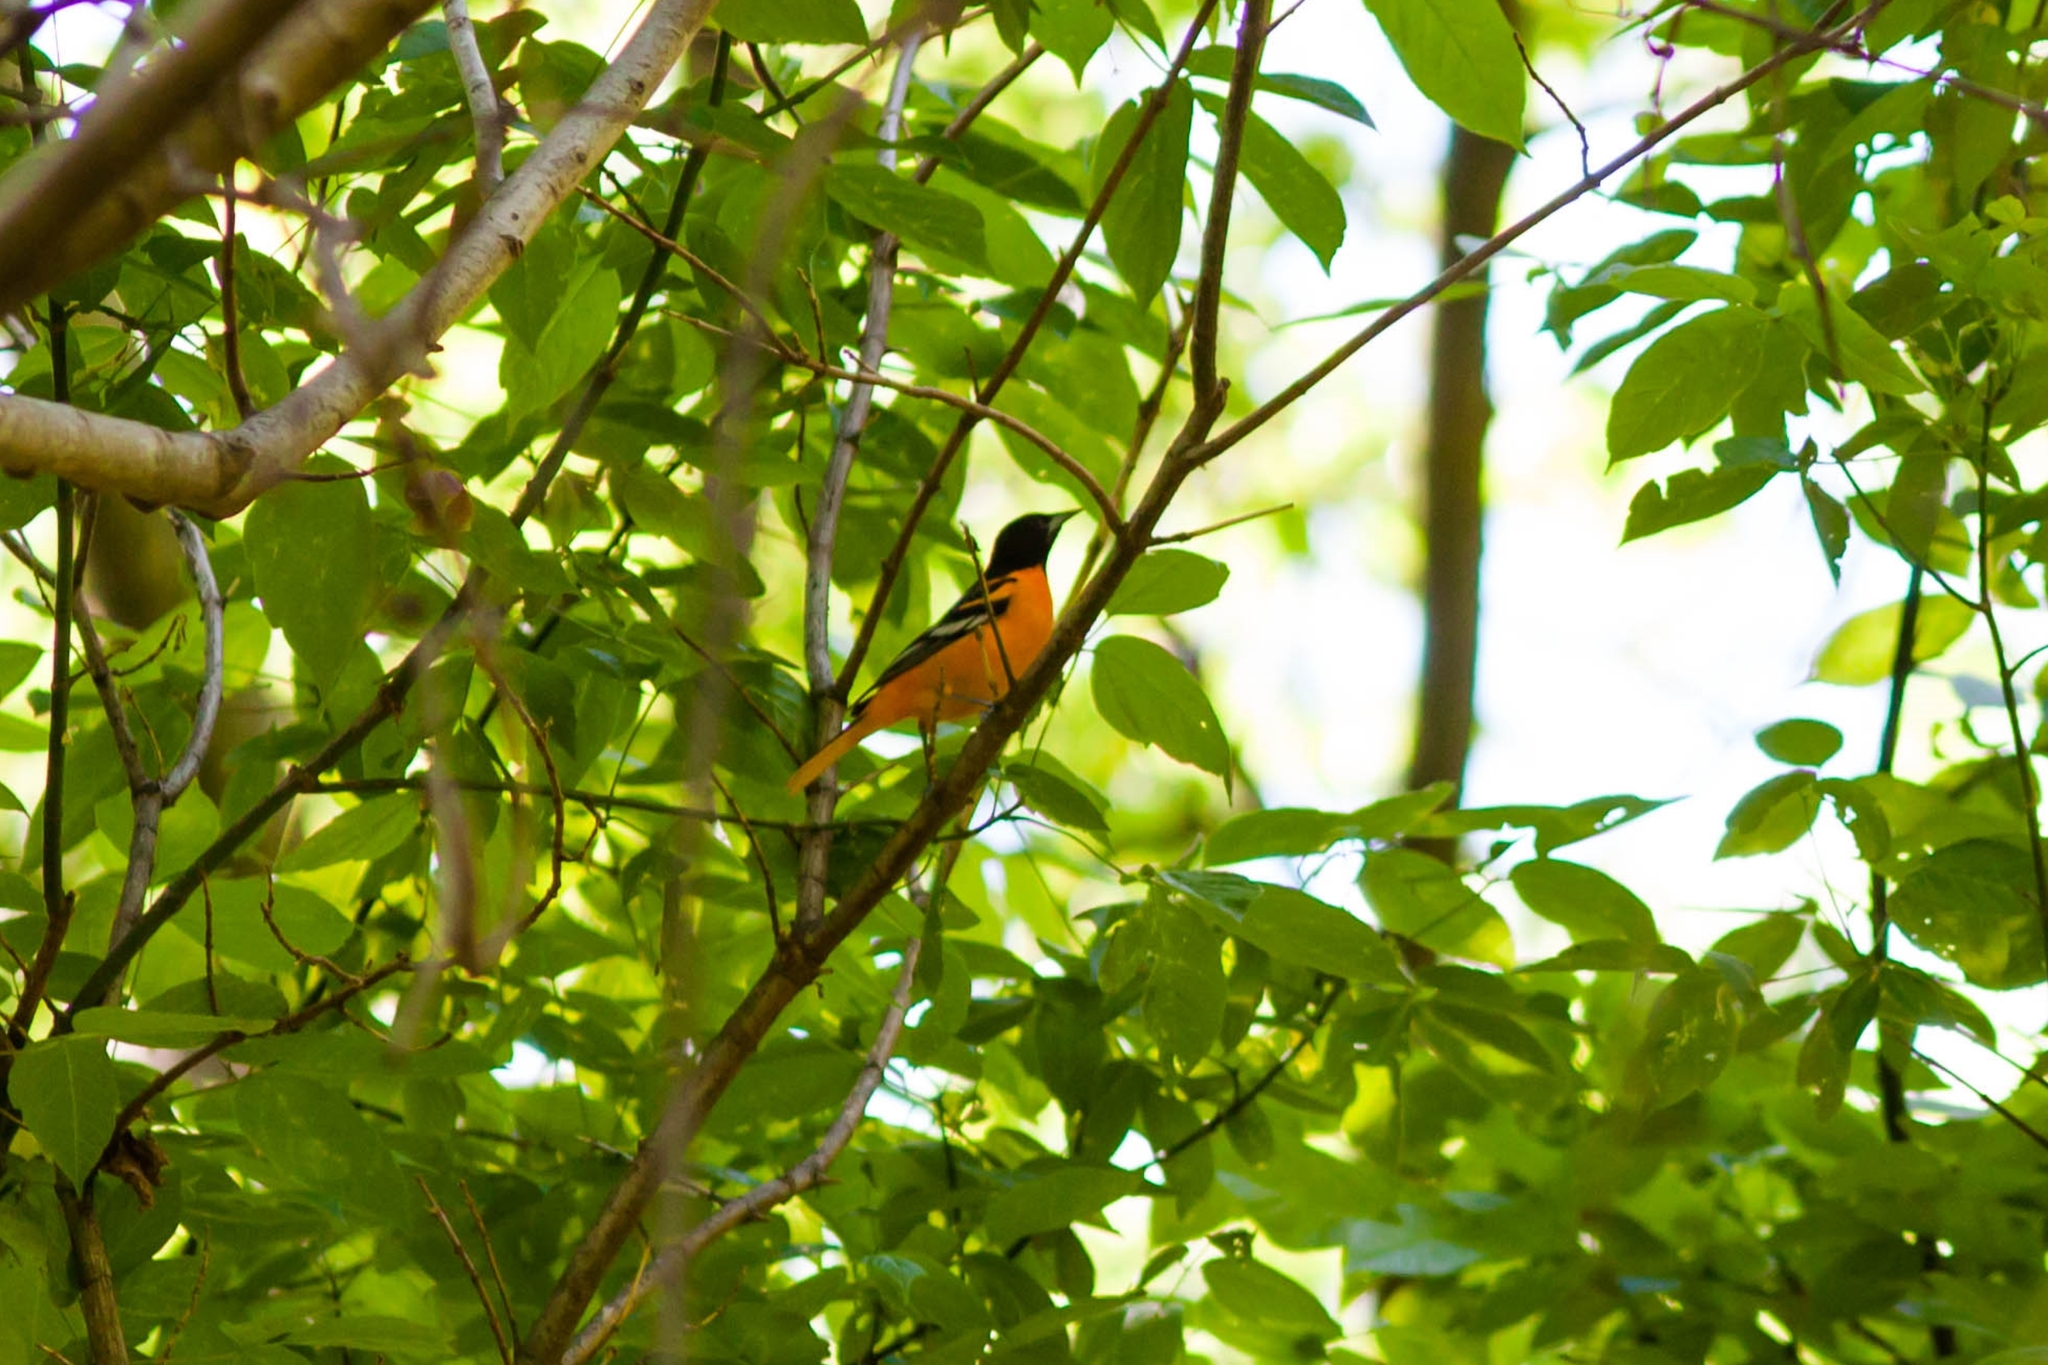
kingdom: Animalia
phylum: Chordata
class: Aves
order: Passeriformes
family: Icteridae
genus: Icterus
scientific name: Icterus galbula
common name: Baltimore oriole
